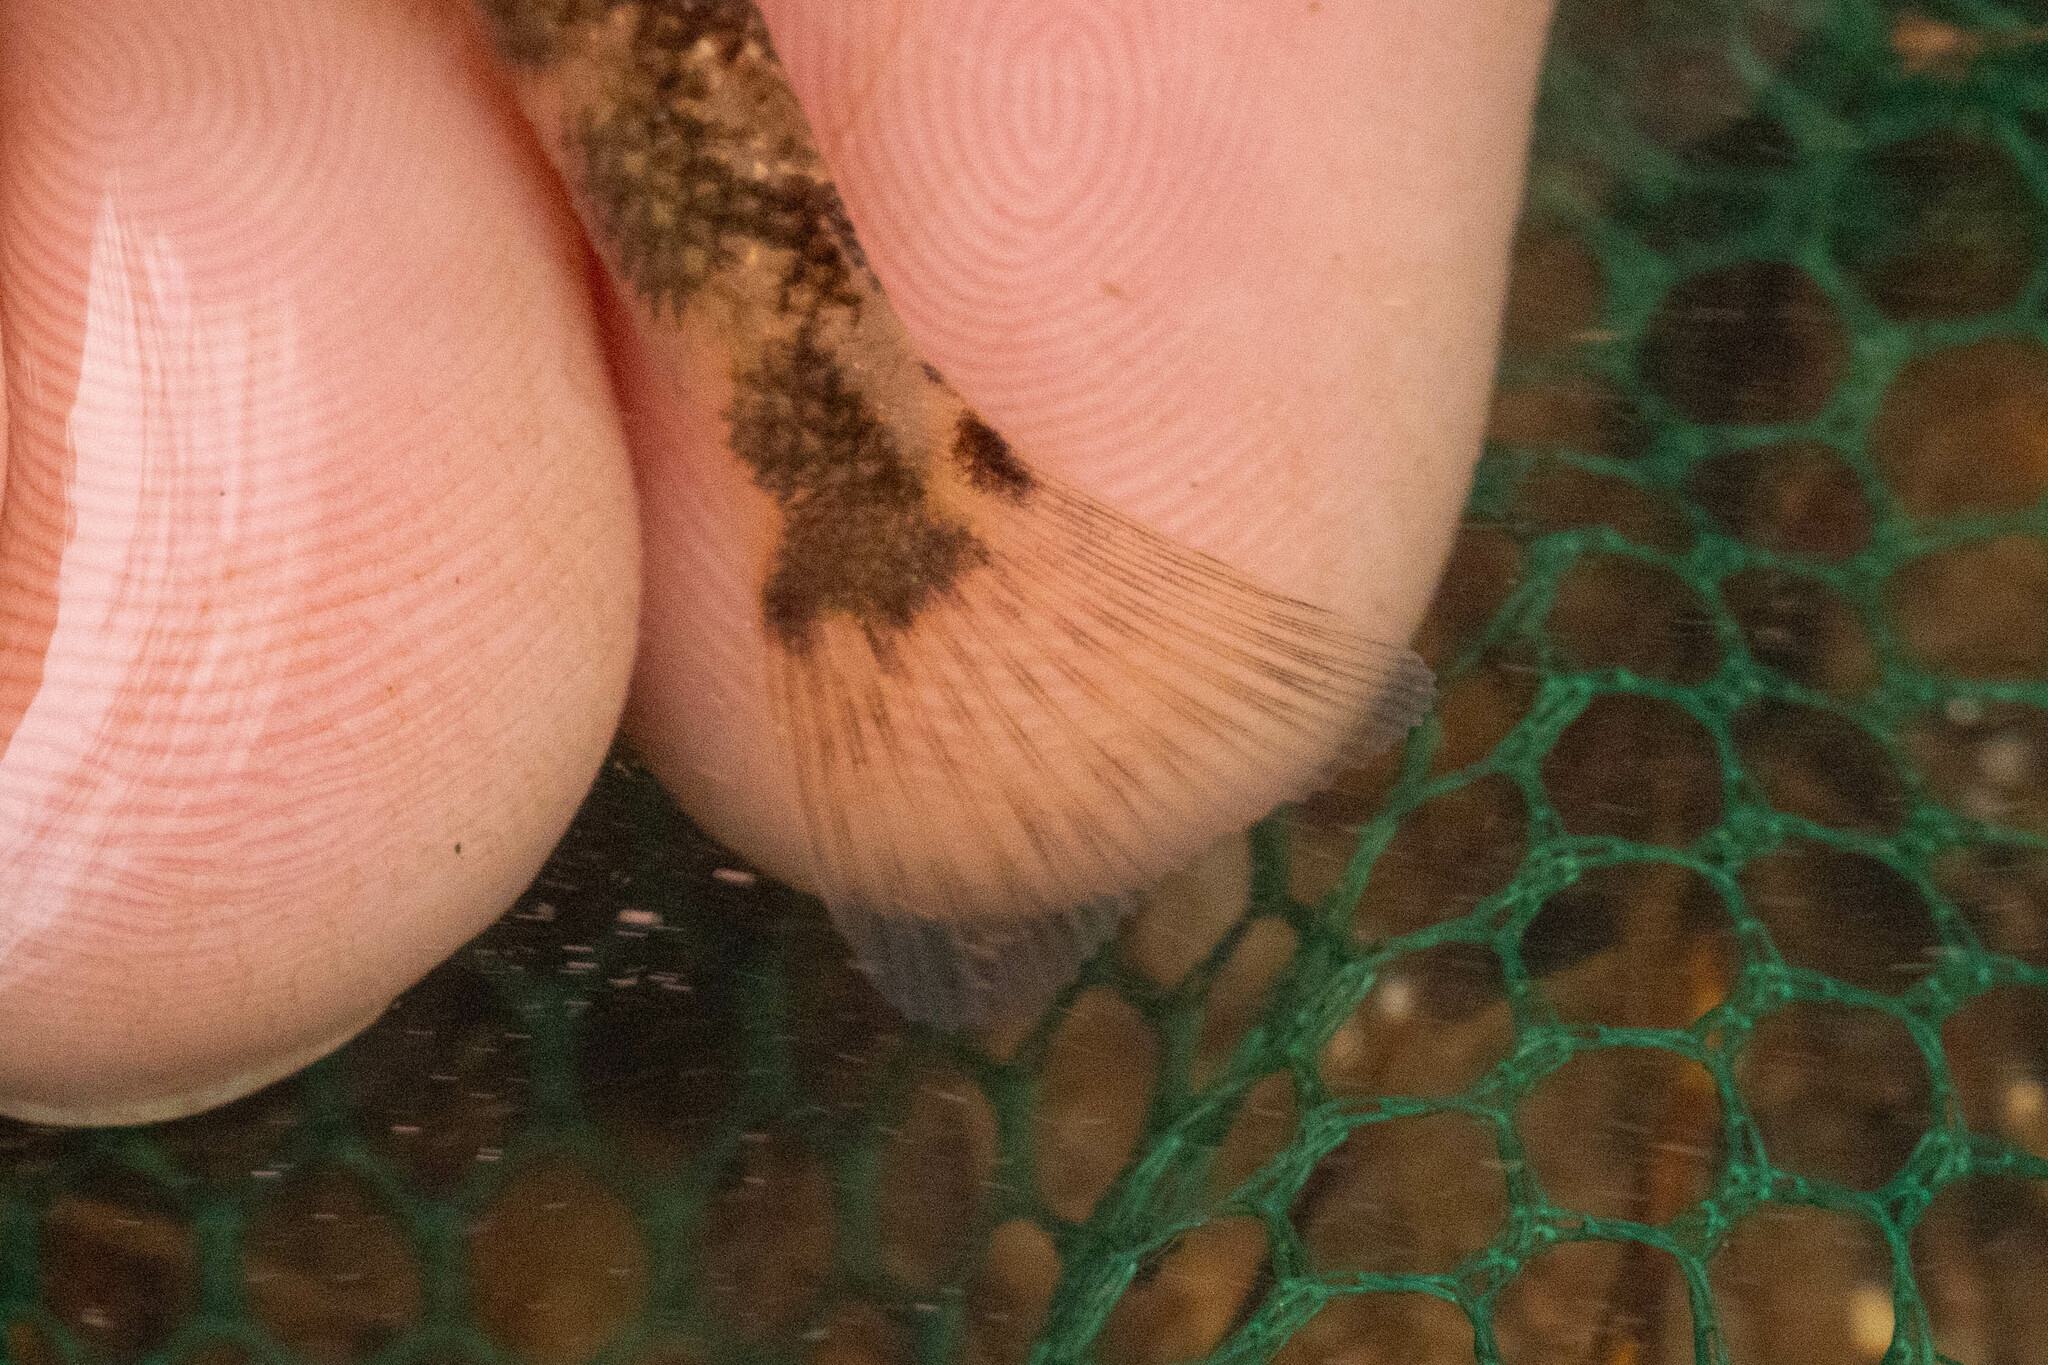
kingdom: Animalia
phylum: Chordata
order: Perciformes
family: Percidae
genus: Percina
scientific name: Percina westfalli
